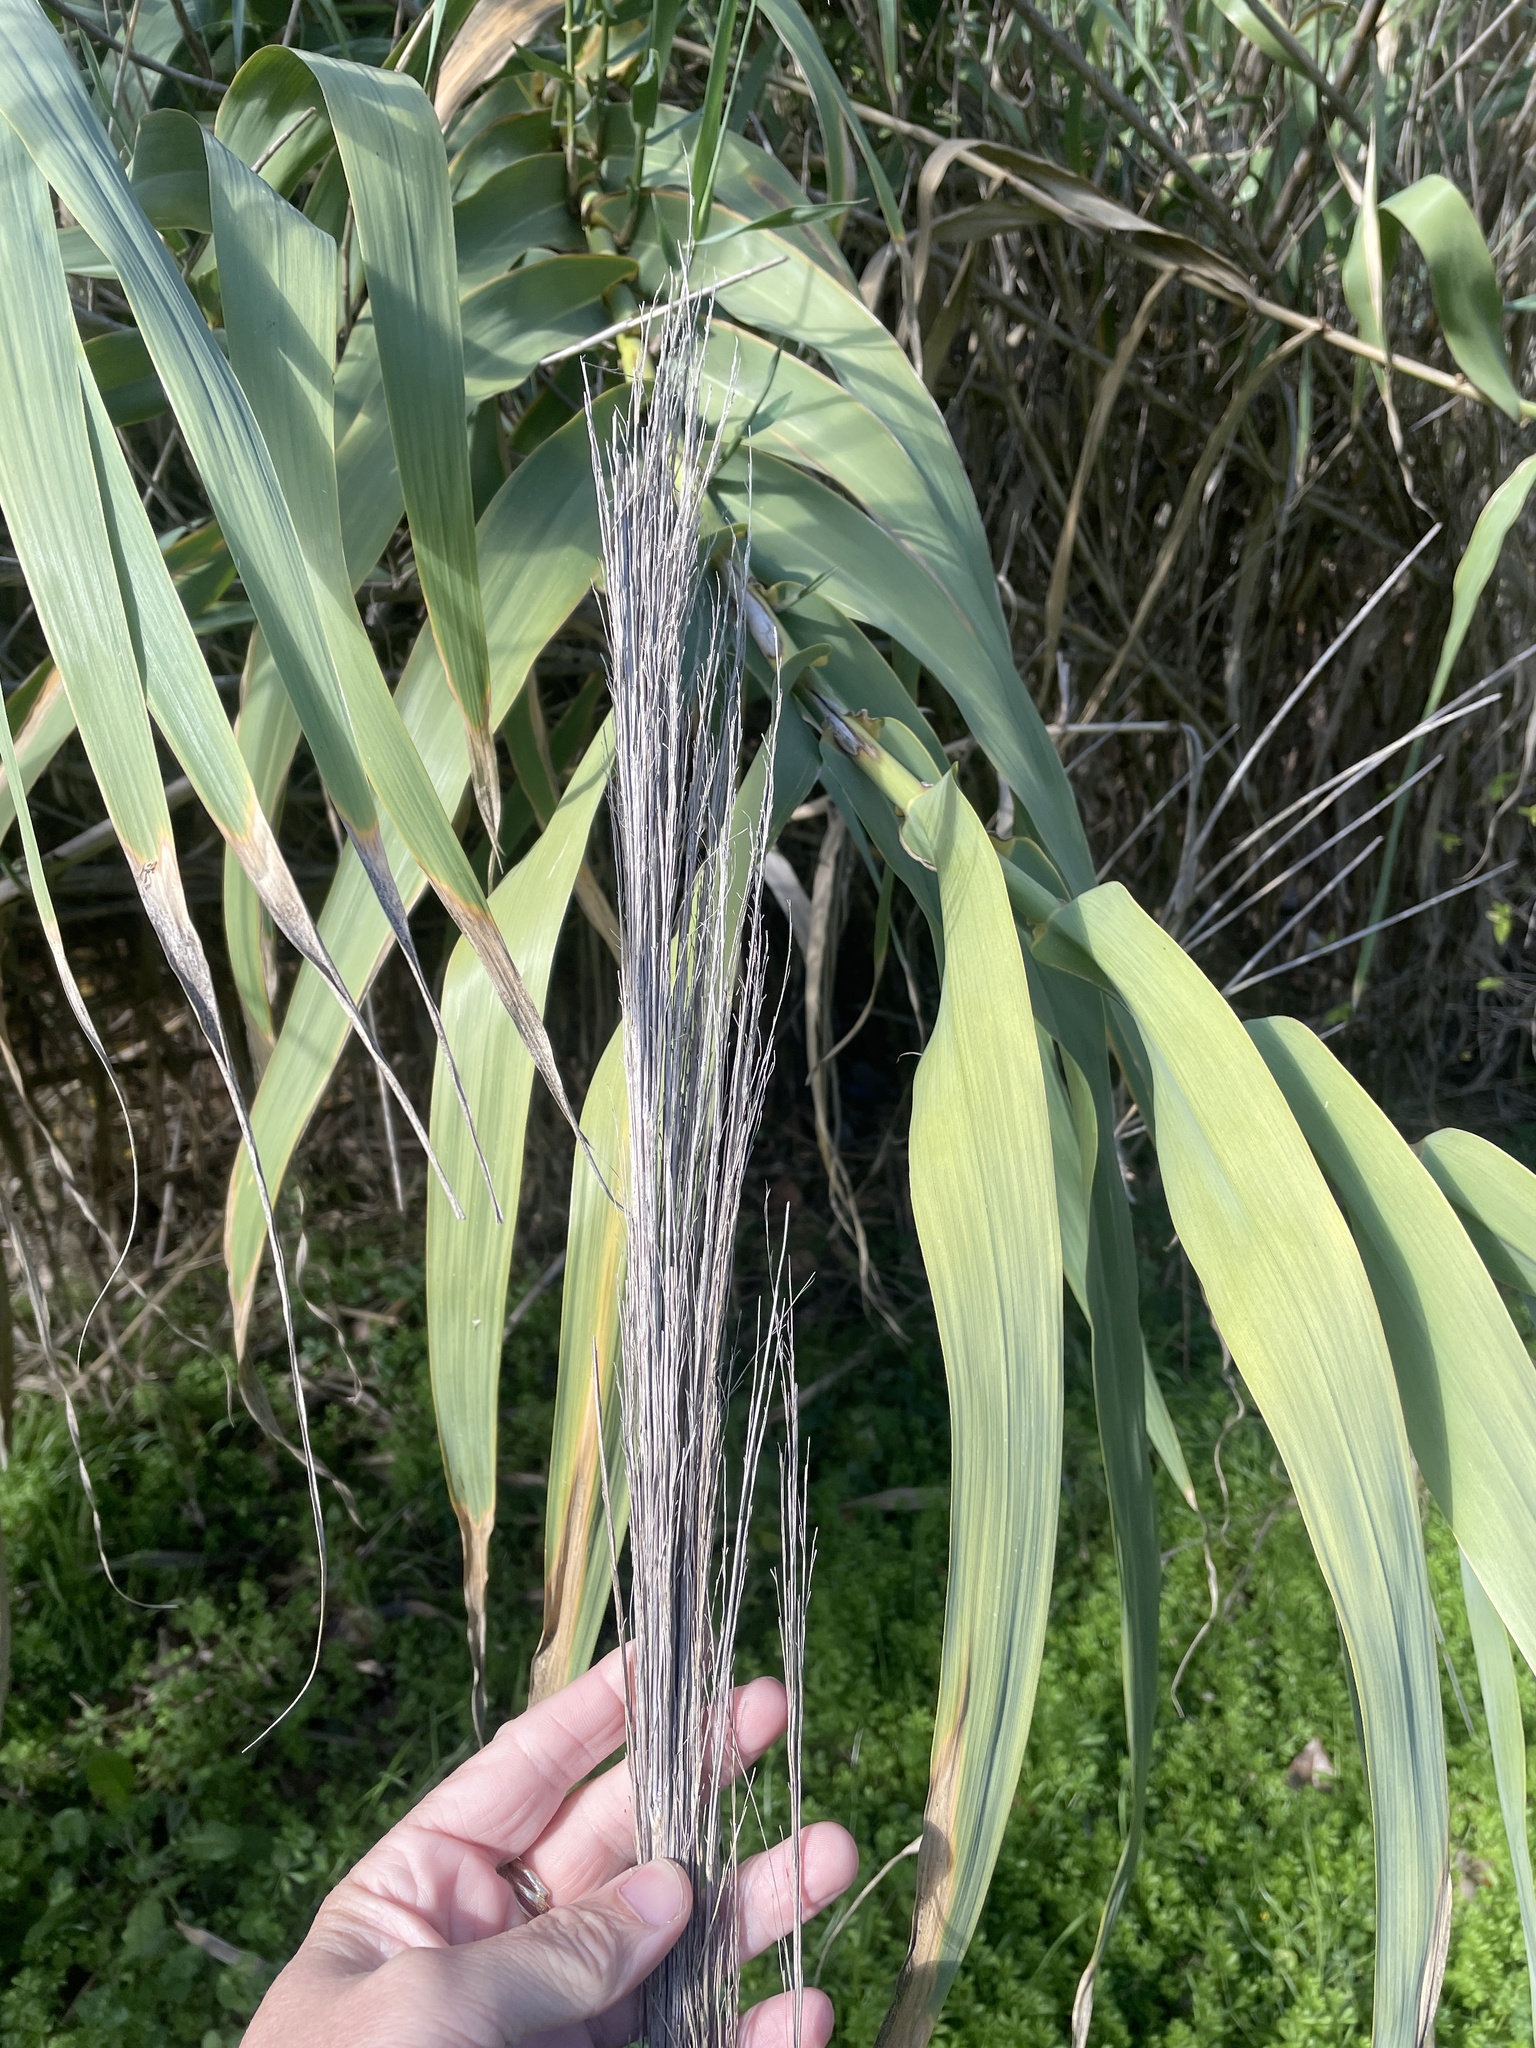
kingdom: Plantae
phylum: Tracheophyta
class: Liliopsida
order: Poales
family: Poaceae
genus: Arundo
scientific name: Arundo donax
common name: Giant reed
